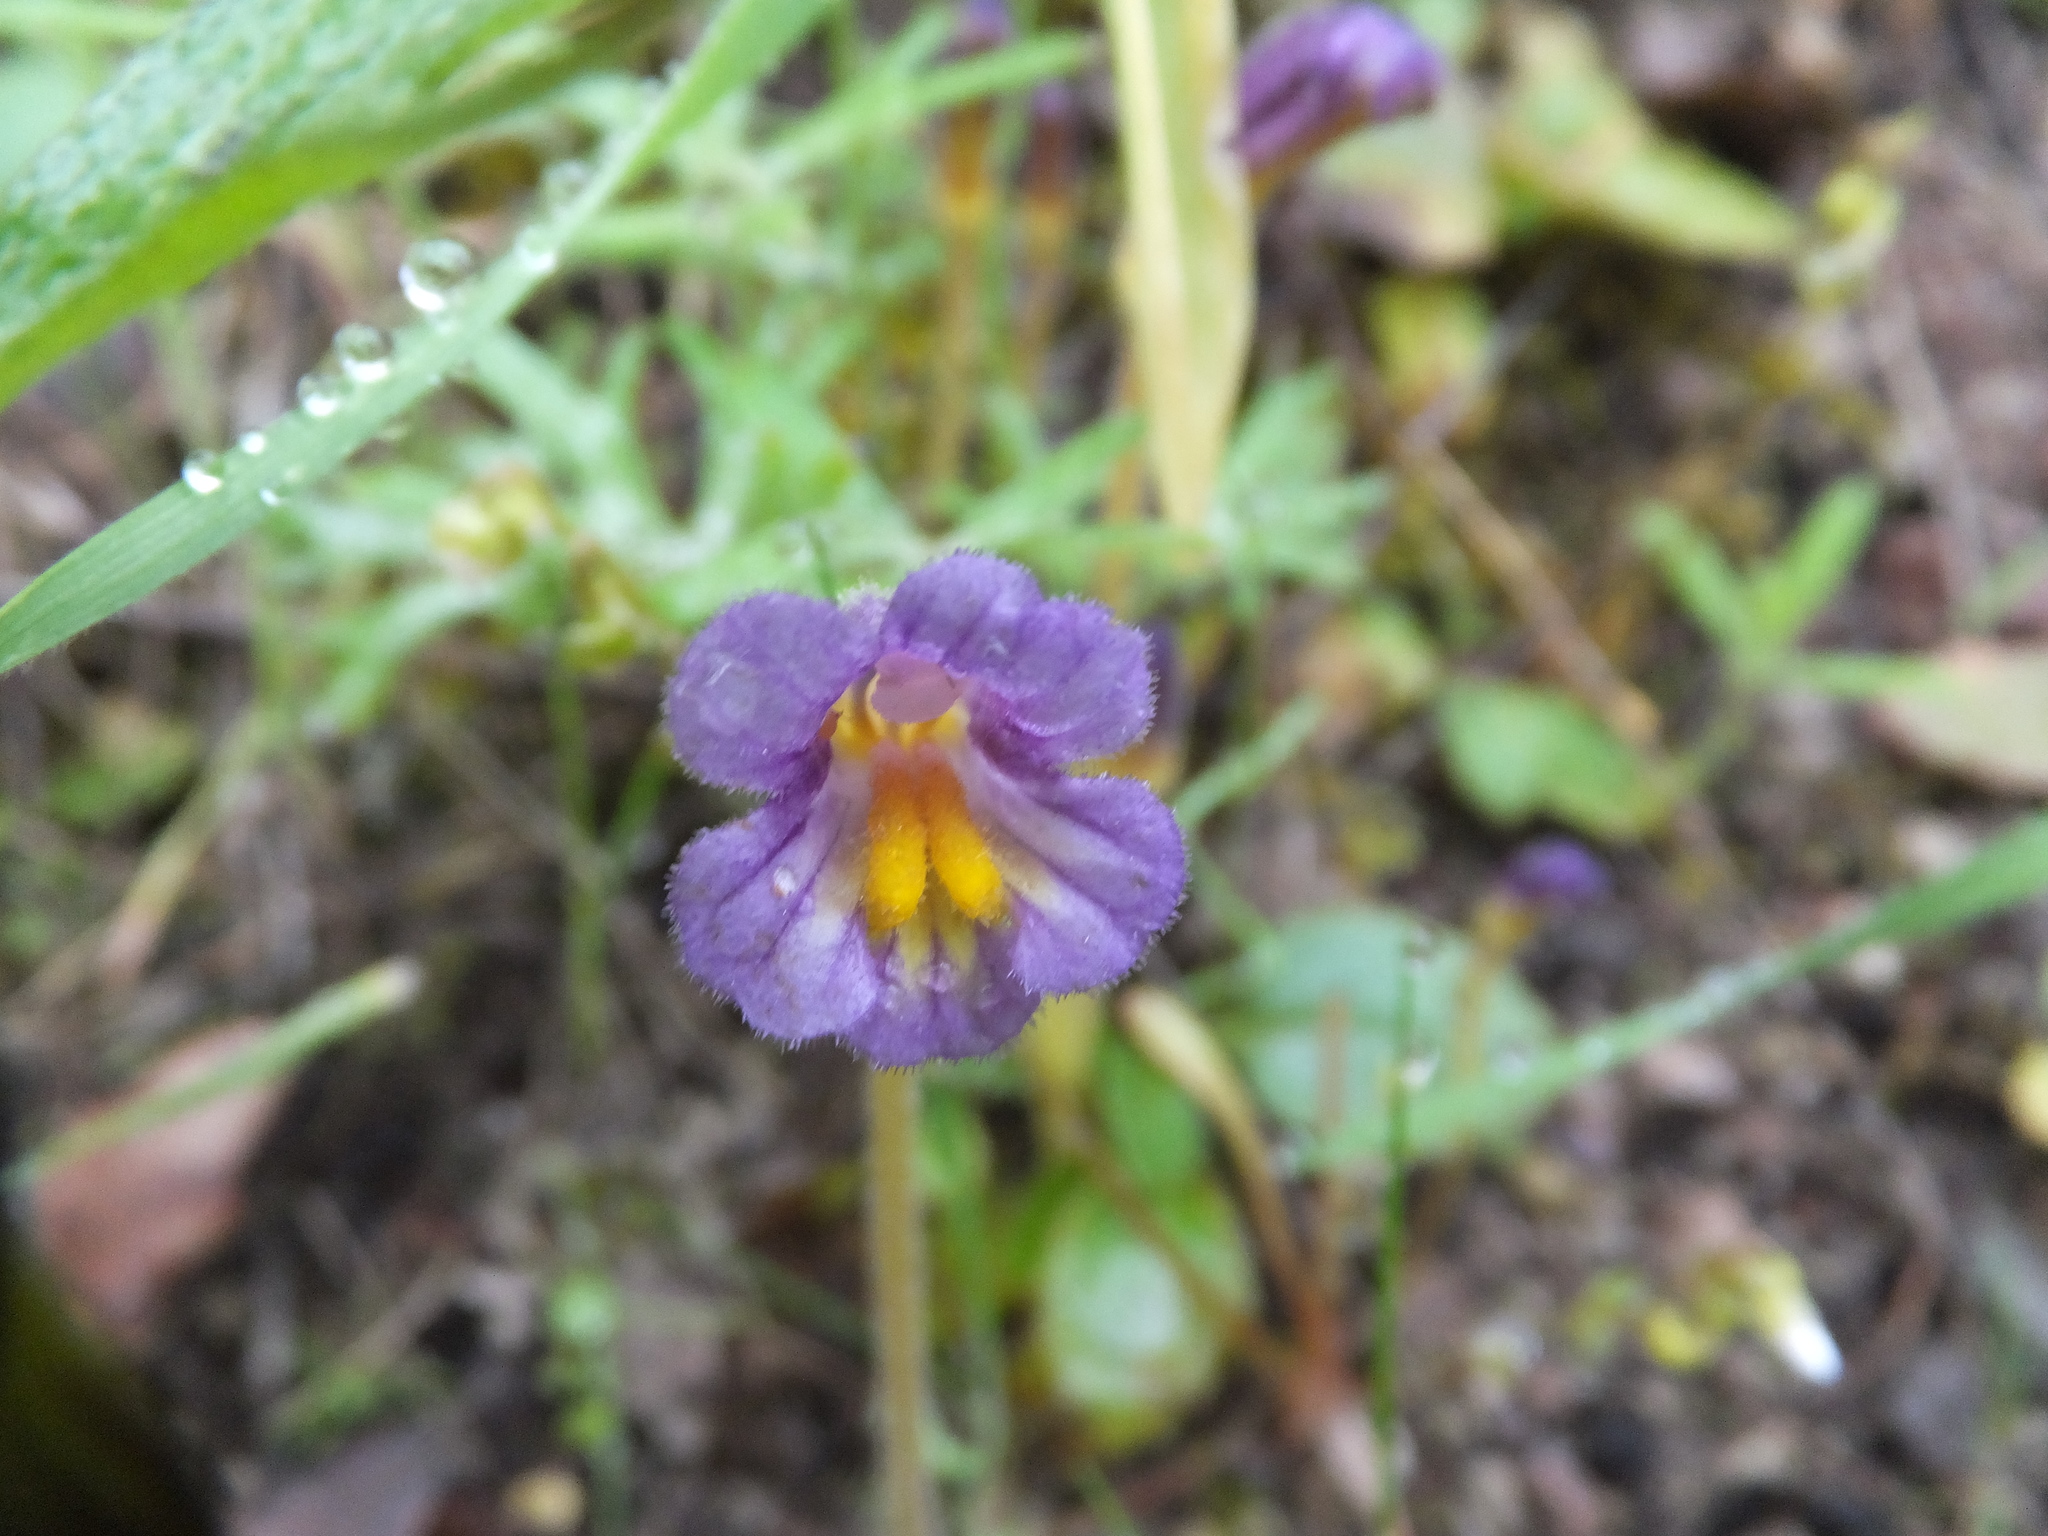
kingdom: Plantae
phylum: Tracheophyta
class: Magnoliopsida
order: Lamiales
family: Orobanchaceae
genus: Aphyllon
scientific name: Aphyllon uniflorum
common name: One-flowered broomrape
